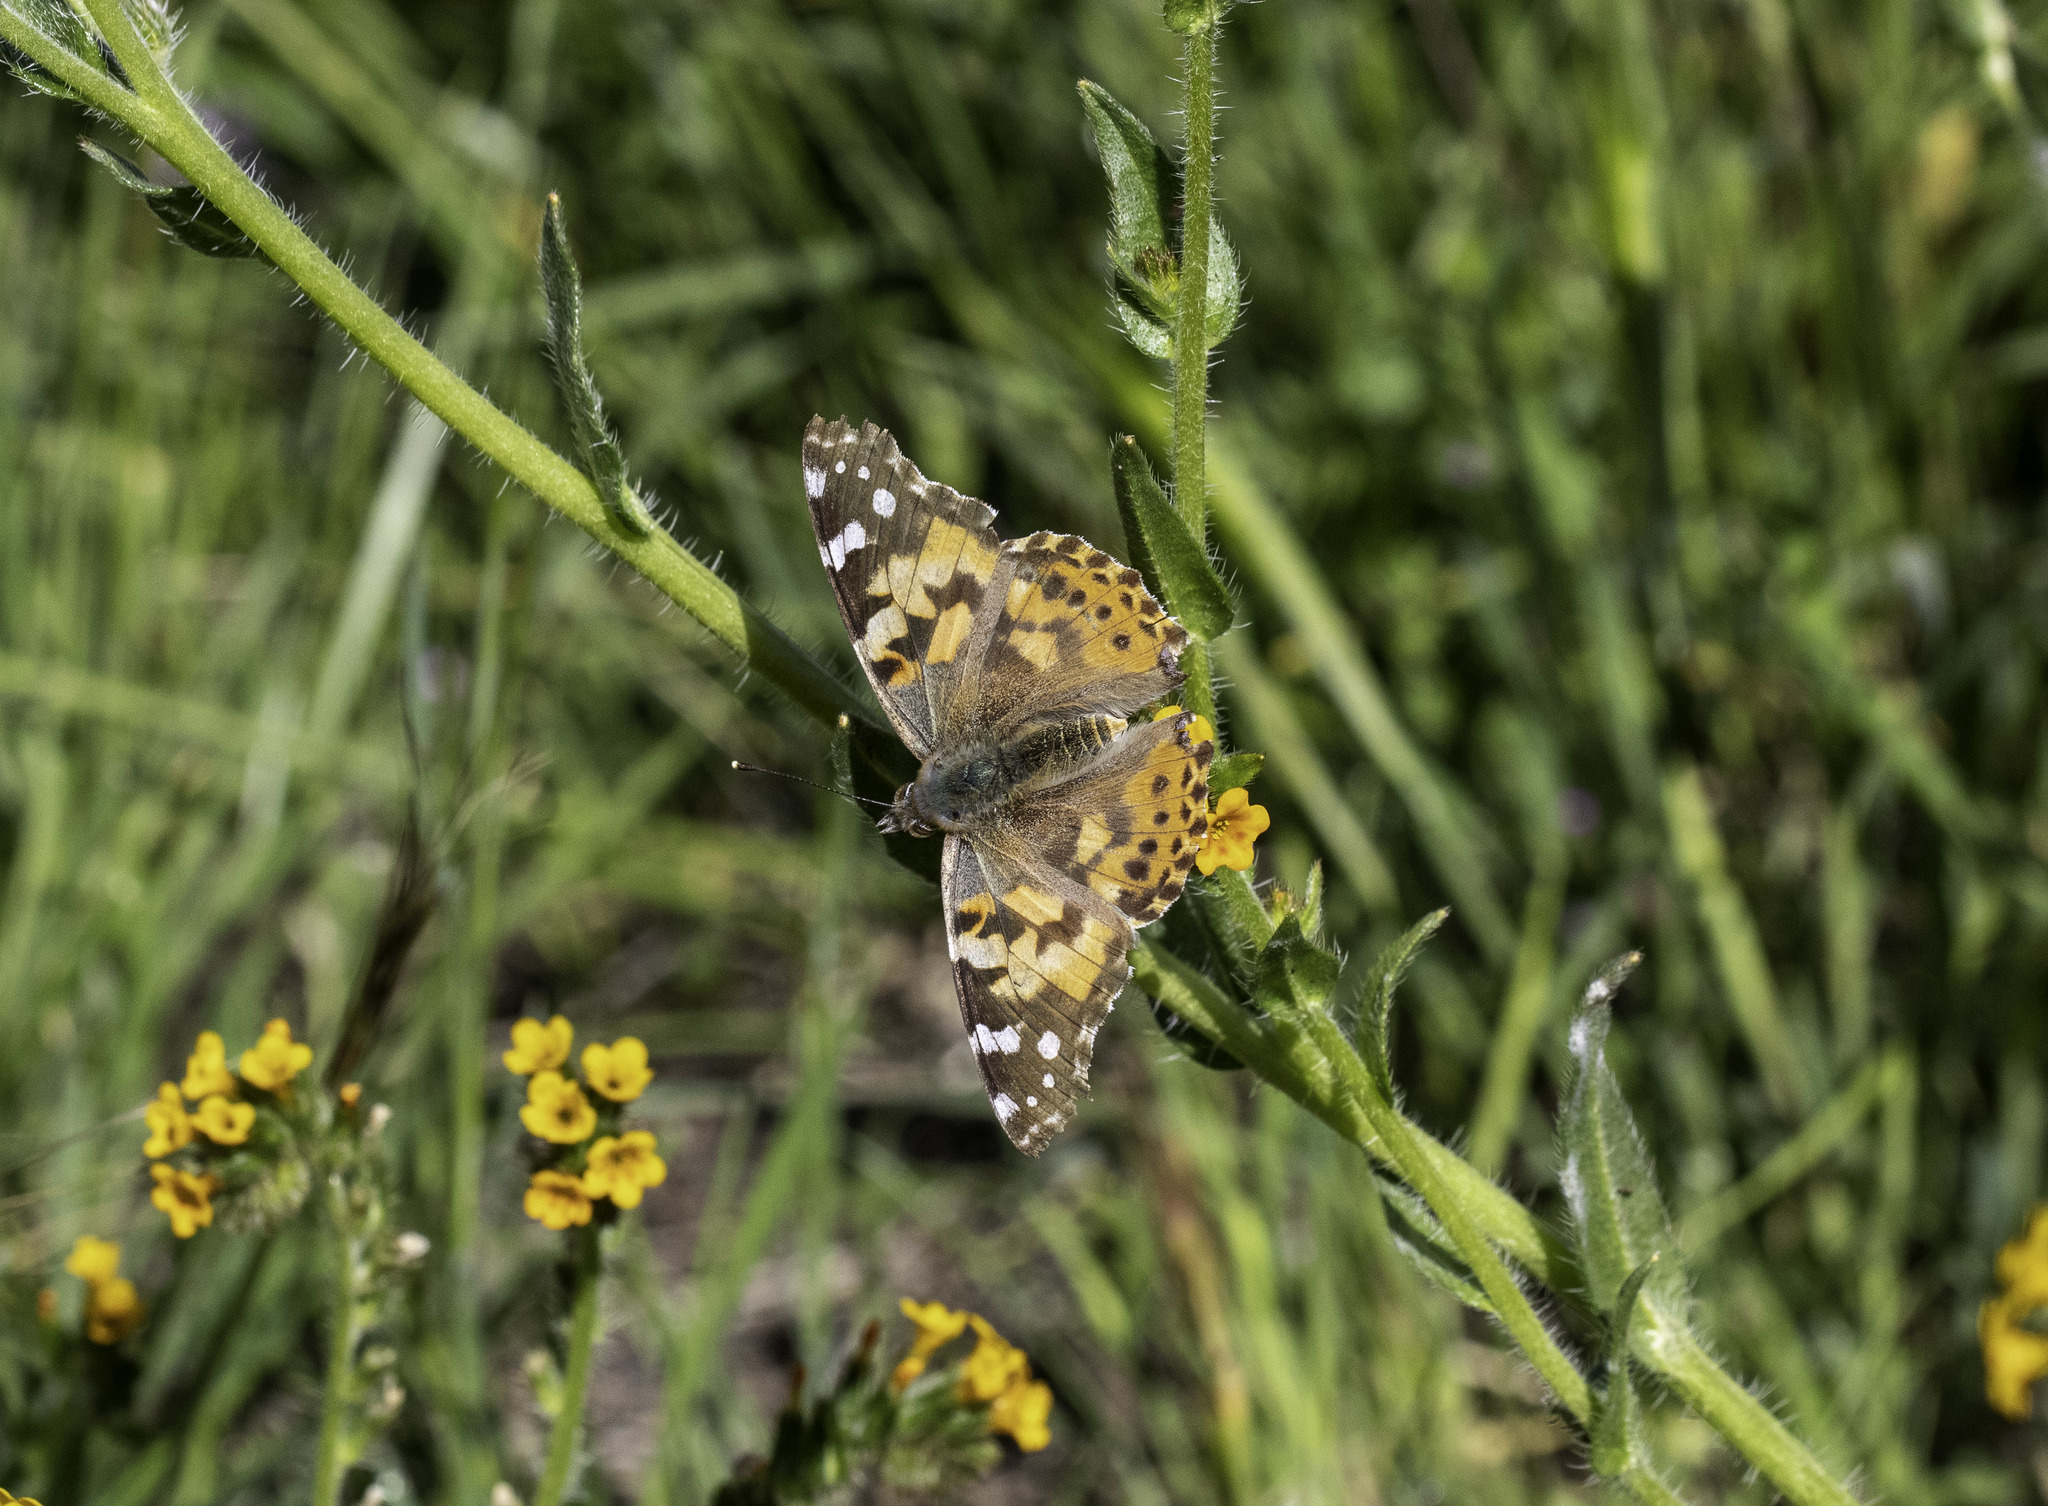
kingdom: Animalia
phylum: Arthropoda
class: Insecta
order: Lepidoptera
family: Nymphalidae
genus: Vanessa
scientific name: Vanessa cardui
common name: Painted lady
